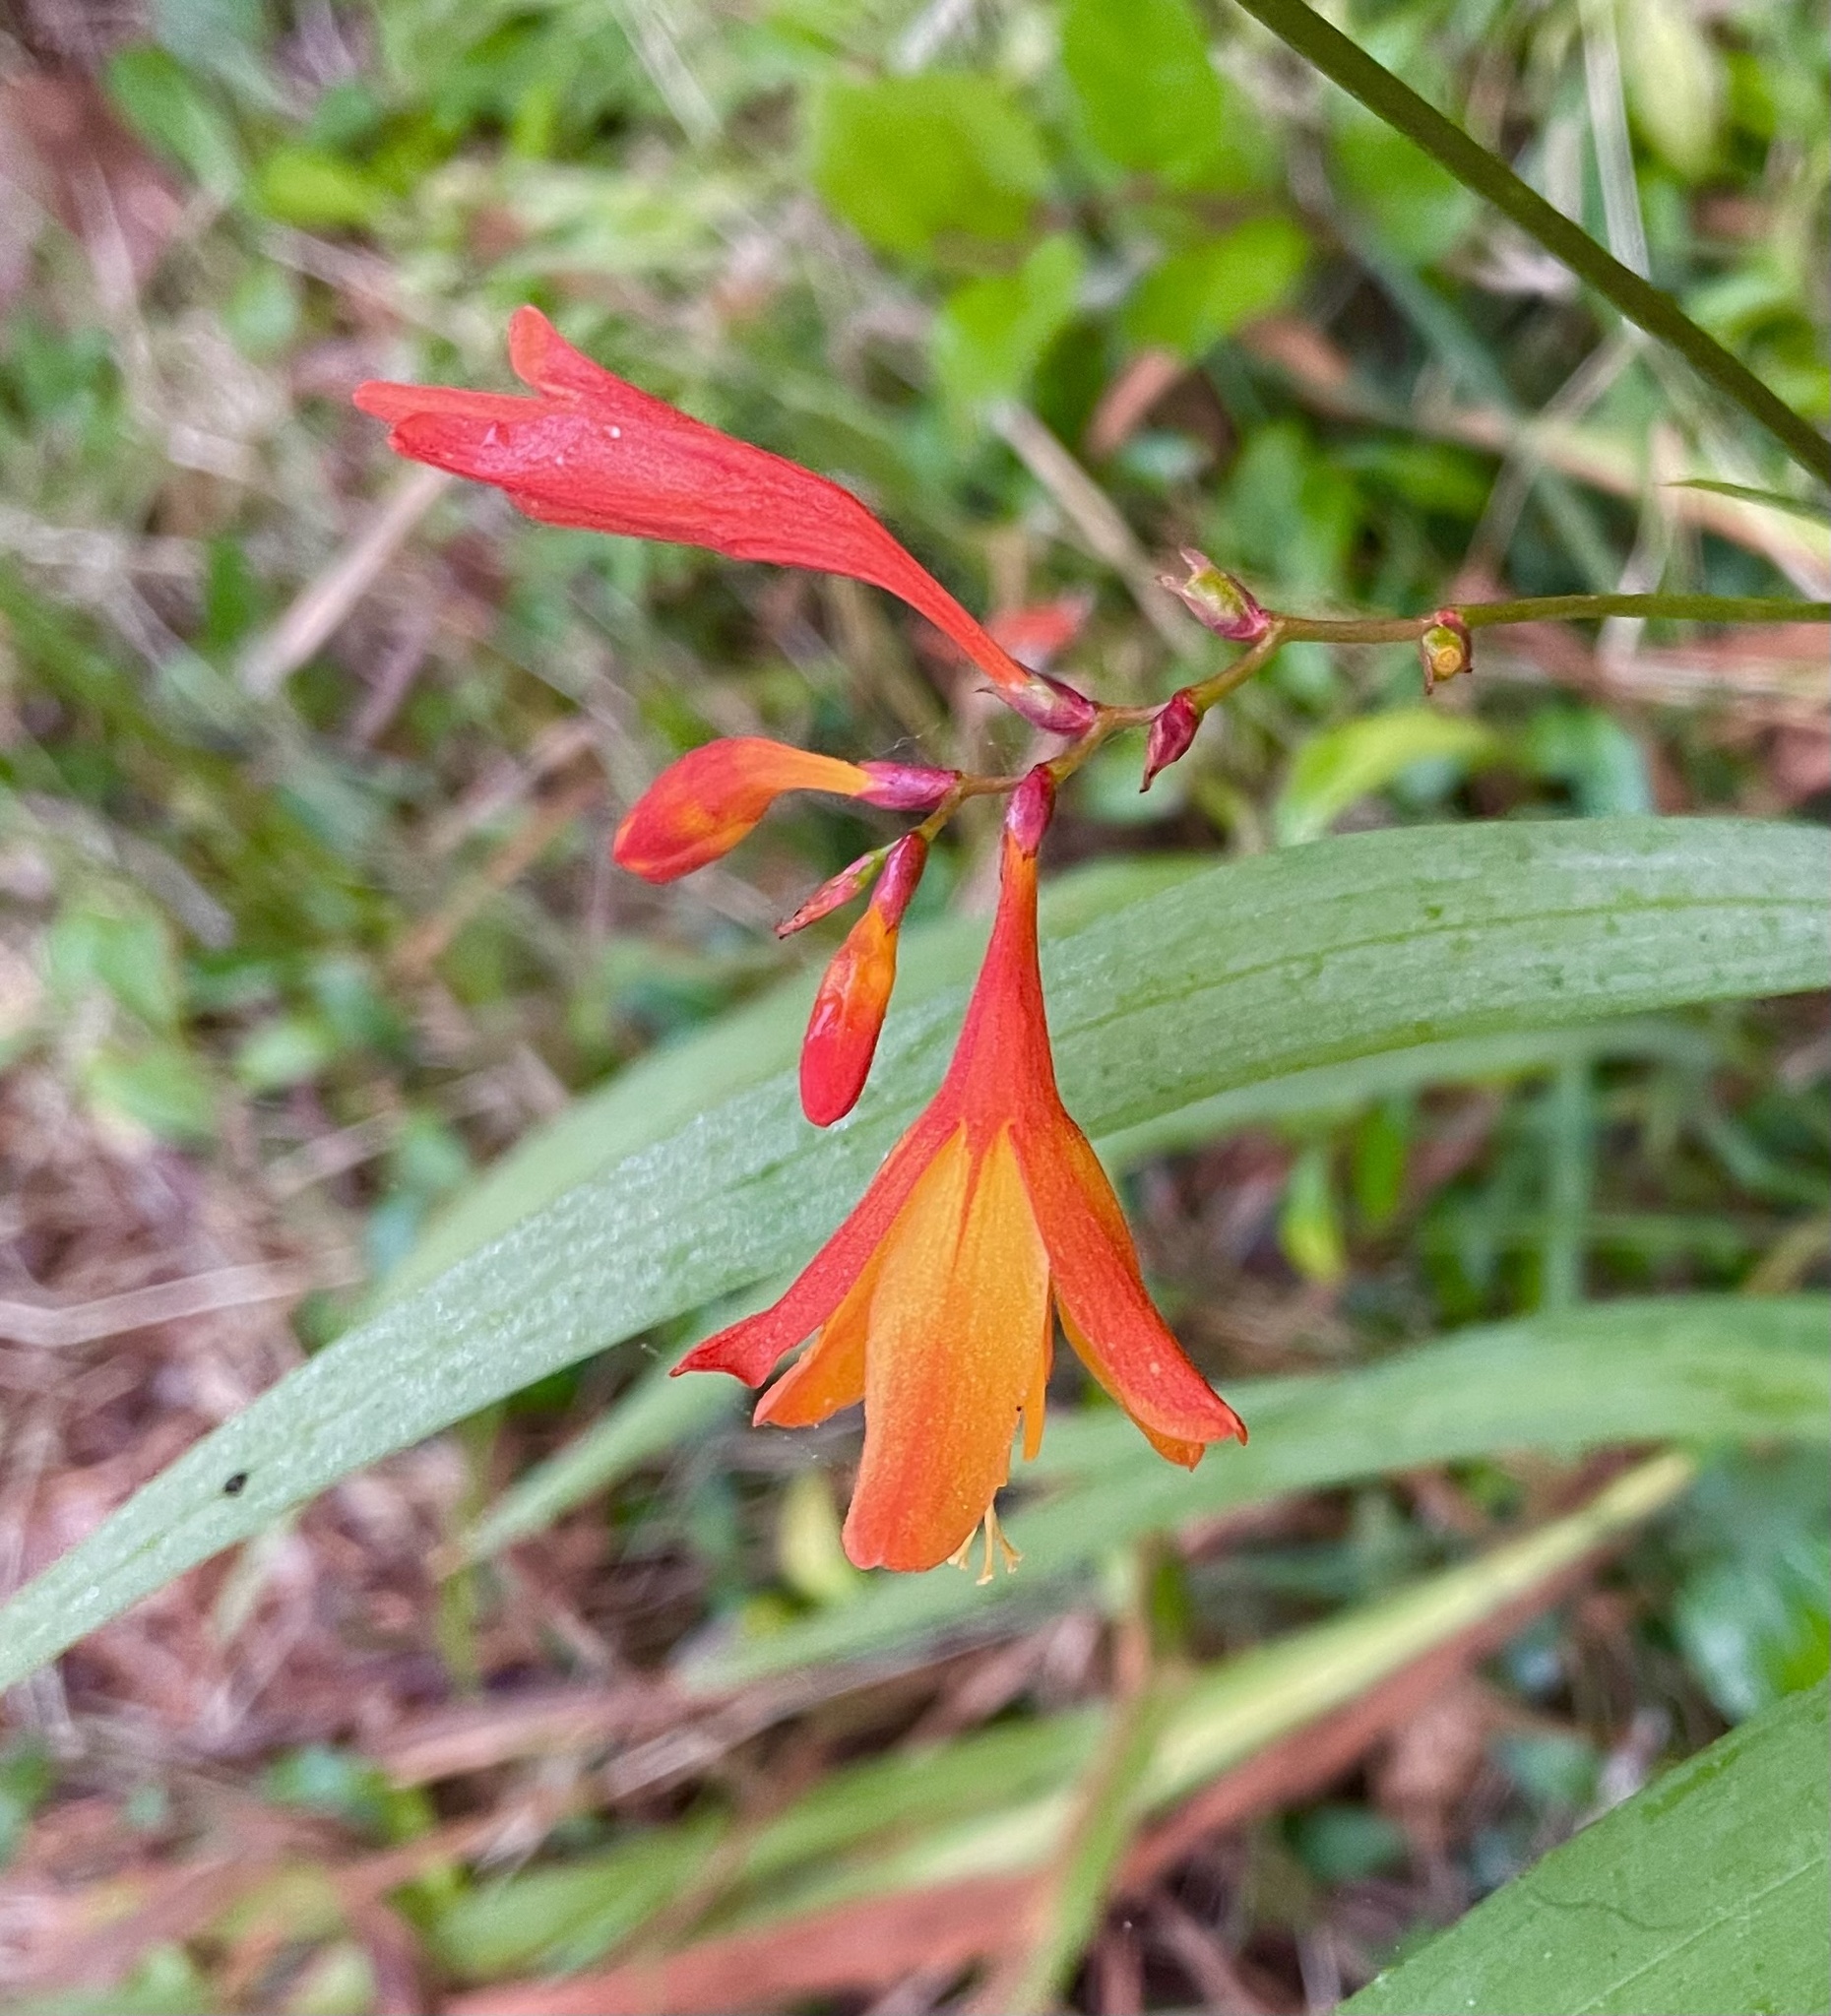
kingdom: Plantae
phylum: Tracheophyta
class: Liliopsida
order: Asparagales
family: Iridaceae
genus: Crocosmia
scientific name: Crocosmia crocosmiiflora
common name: Montbretia
